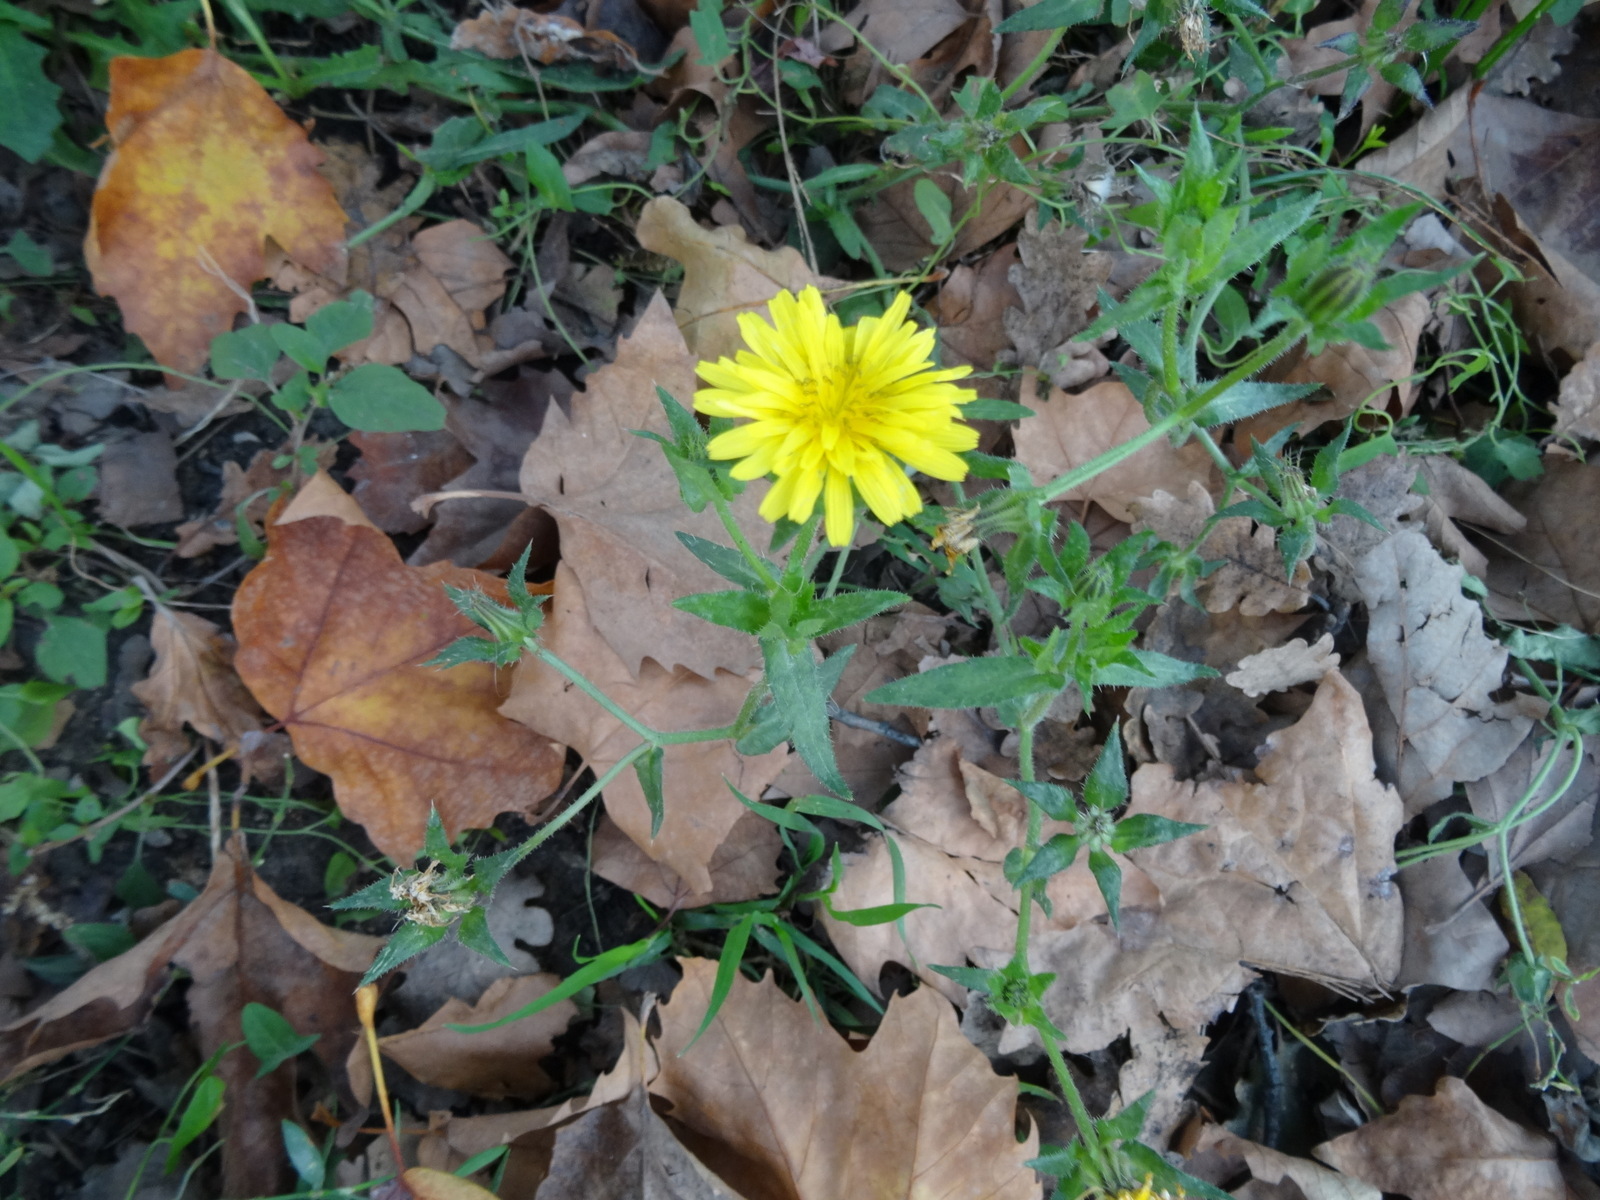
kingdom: Plantae
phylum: Tracheophyta
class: Magnoliopsida
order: Asterales
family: Asteraceae
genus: Helminthotheca
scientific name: Helminthotheca echioides
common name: Ox-tongue
